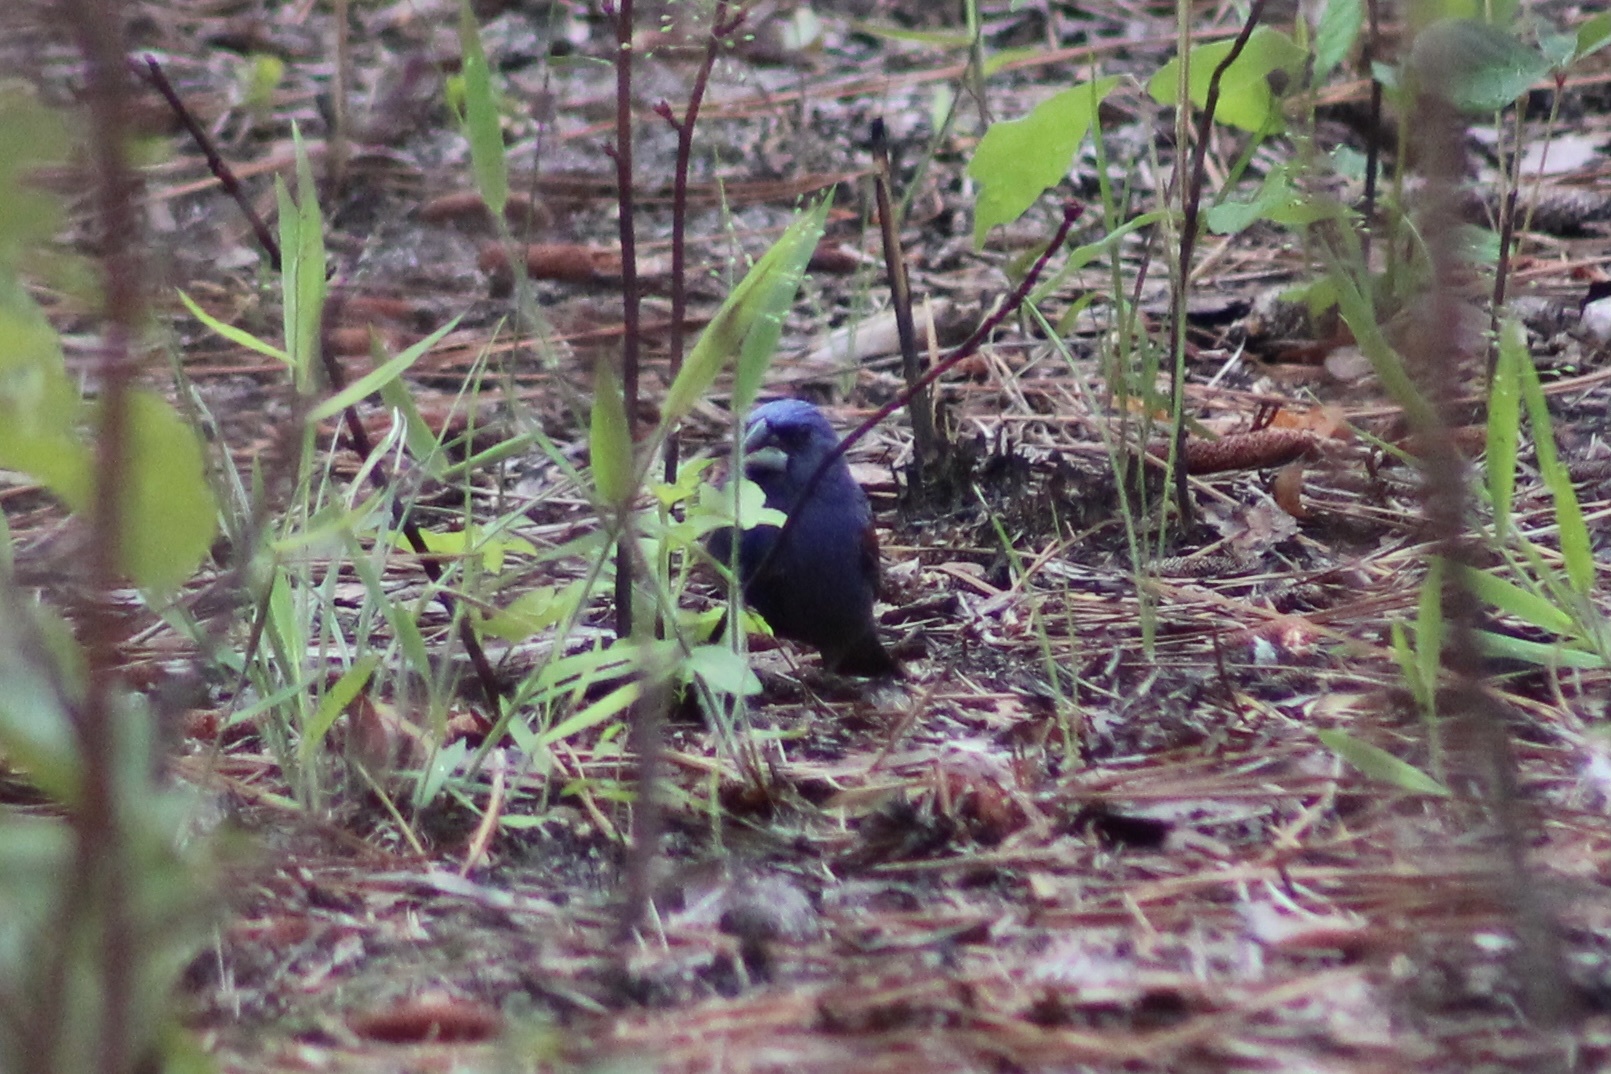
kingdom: Animalia
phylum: Chordata
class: Aves
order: Passeriformes
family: Cardinalidae
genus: Passerina
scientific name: Passerina caerulea
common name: Blue grosbeak
